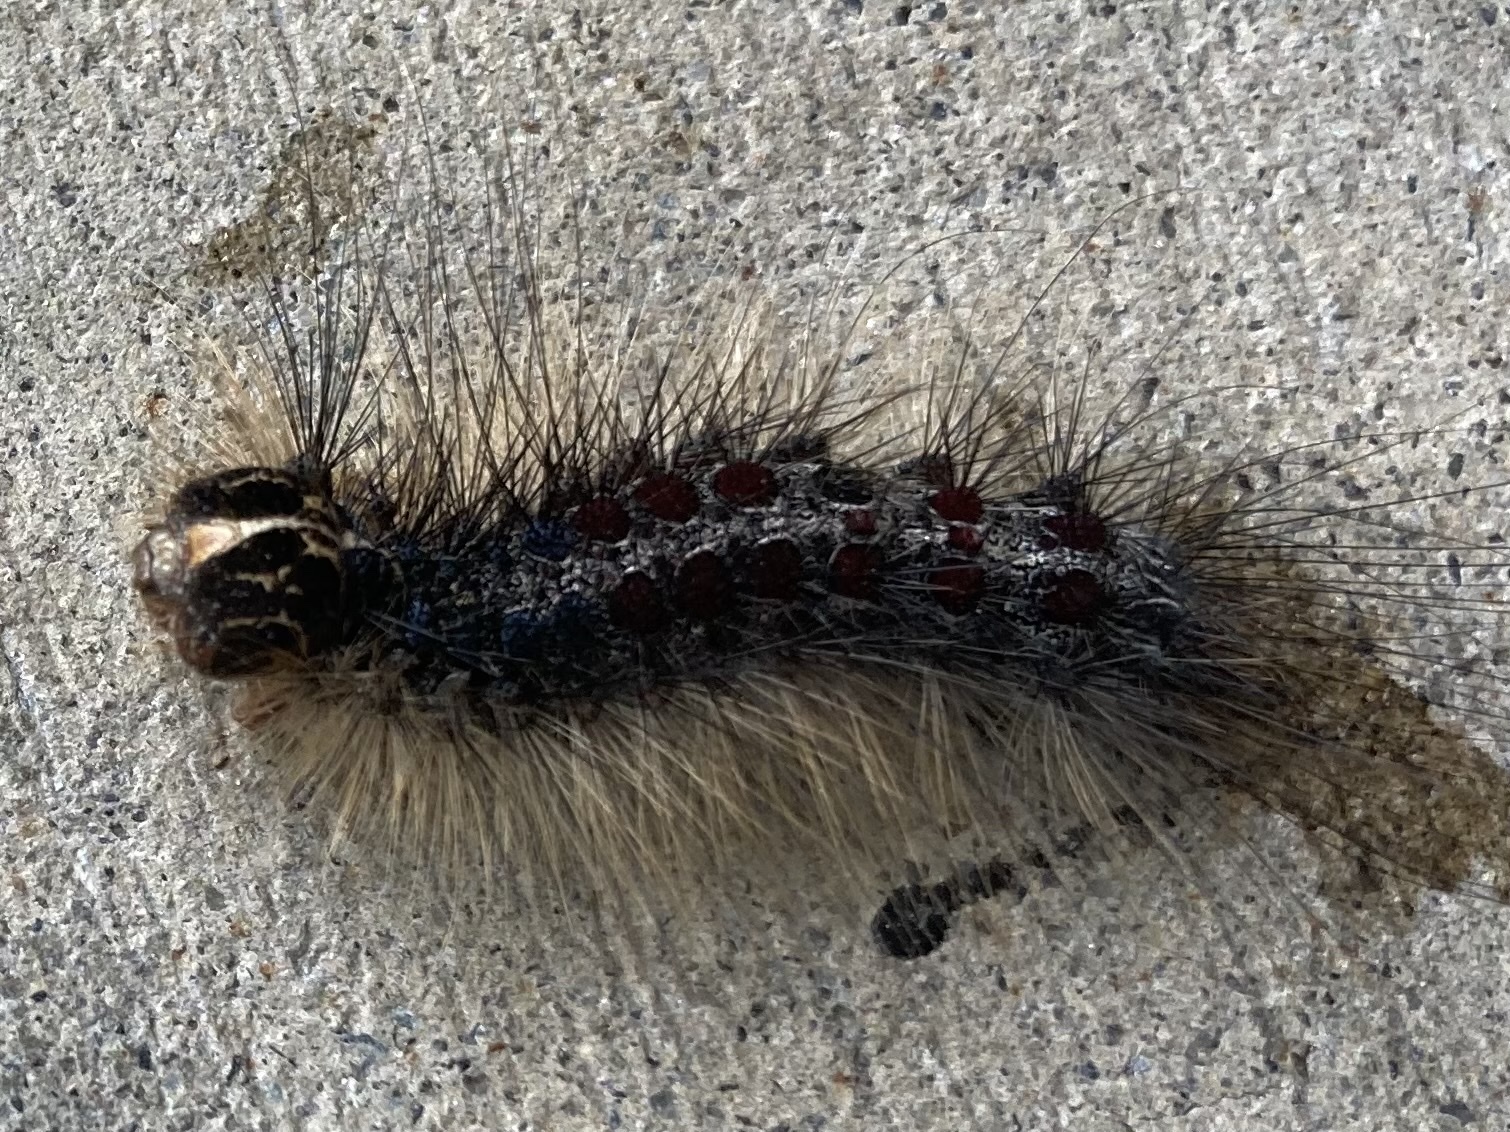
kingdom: Animalia
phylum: Arthropoda
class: Insecta
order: Lepidoptera
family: Erebidae
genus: Lymantria
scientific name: Lymantria dispar
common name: Gypsy moth
